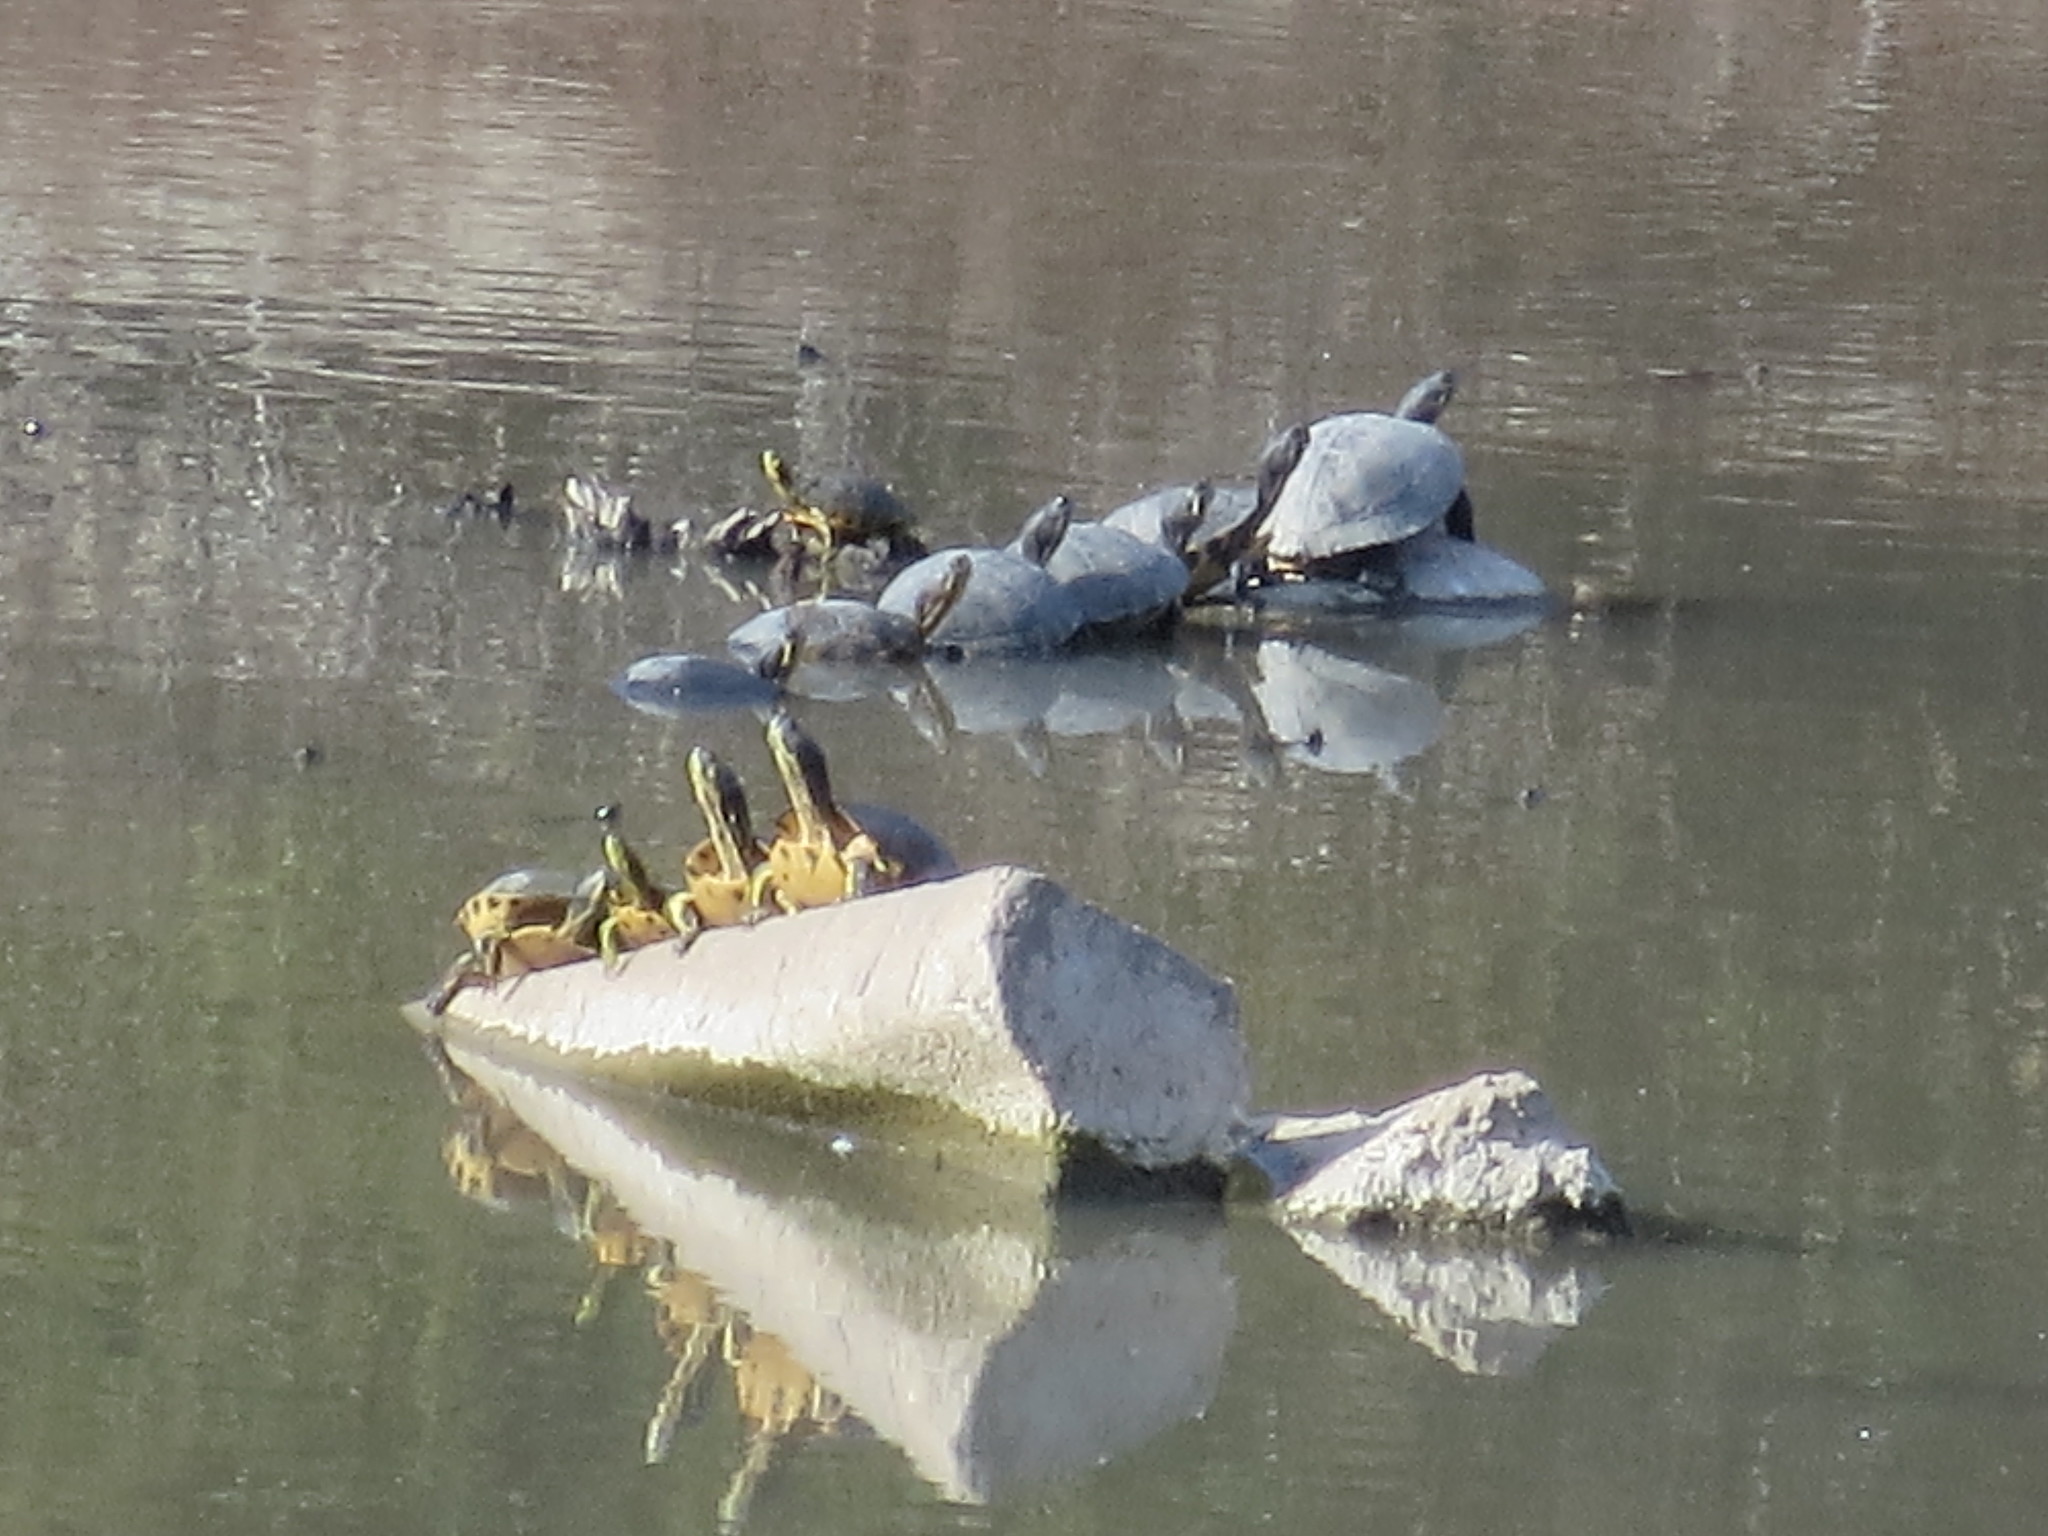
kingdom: Animalia
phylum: Chordata
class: Testudines
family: Emydidae
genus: Trachemys
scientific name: Trachemys scripta
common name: Slider
